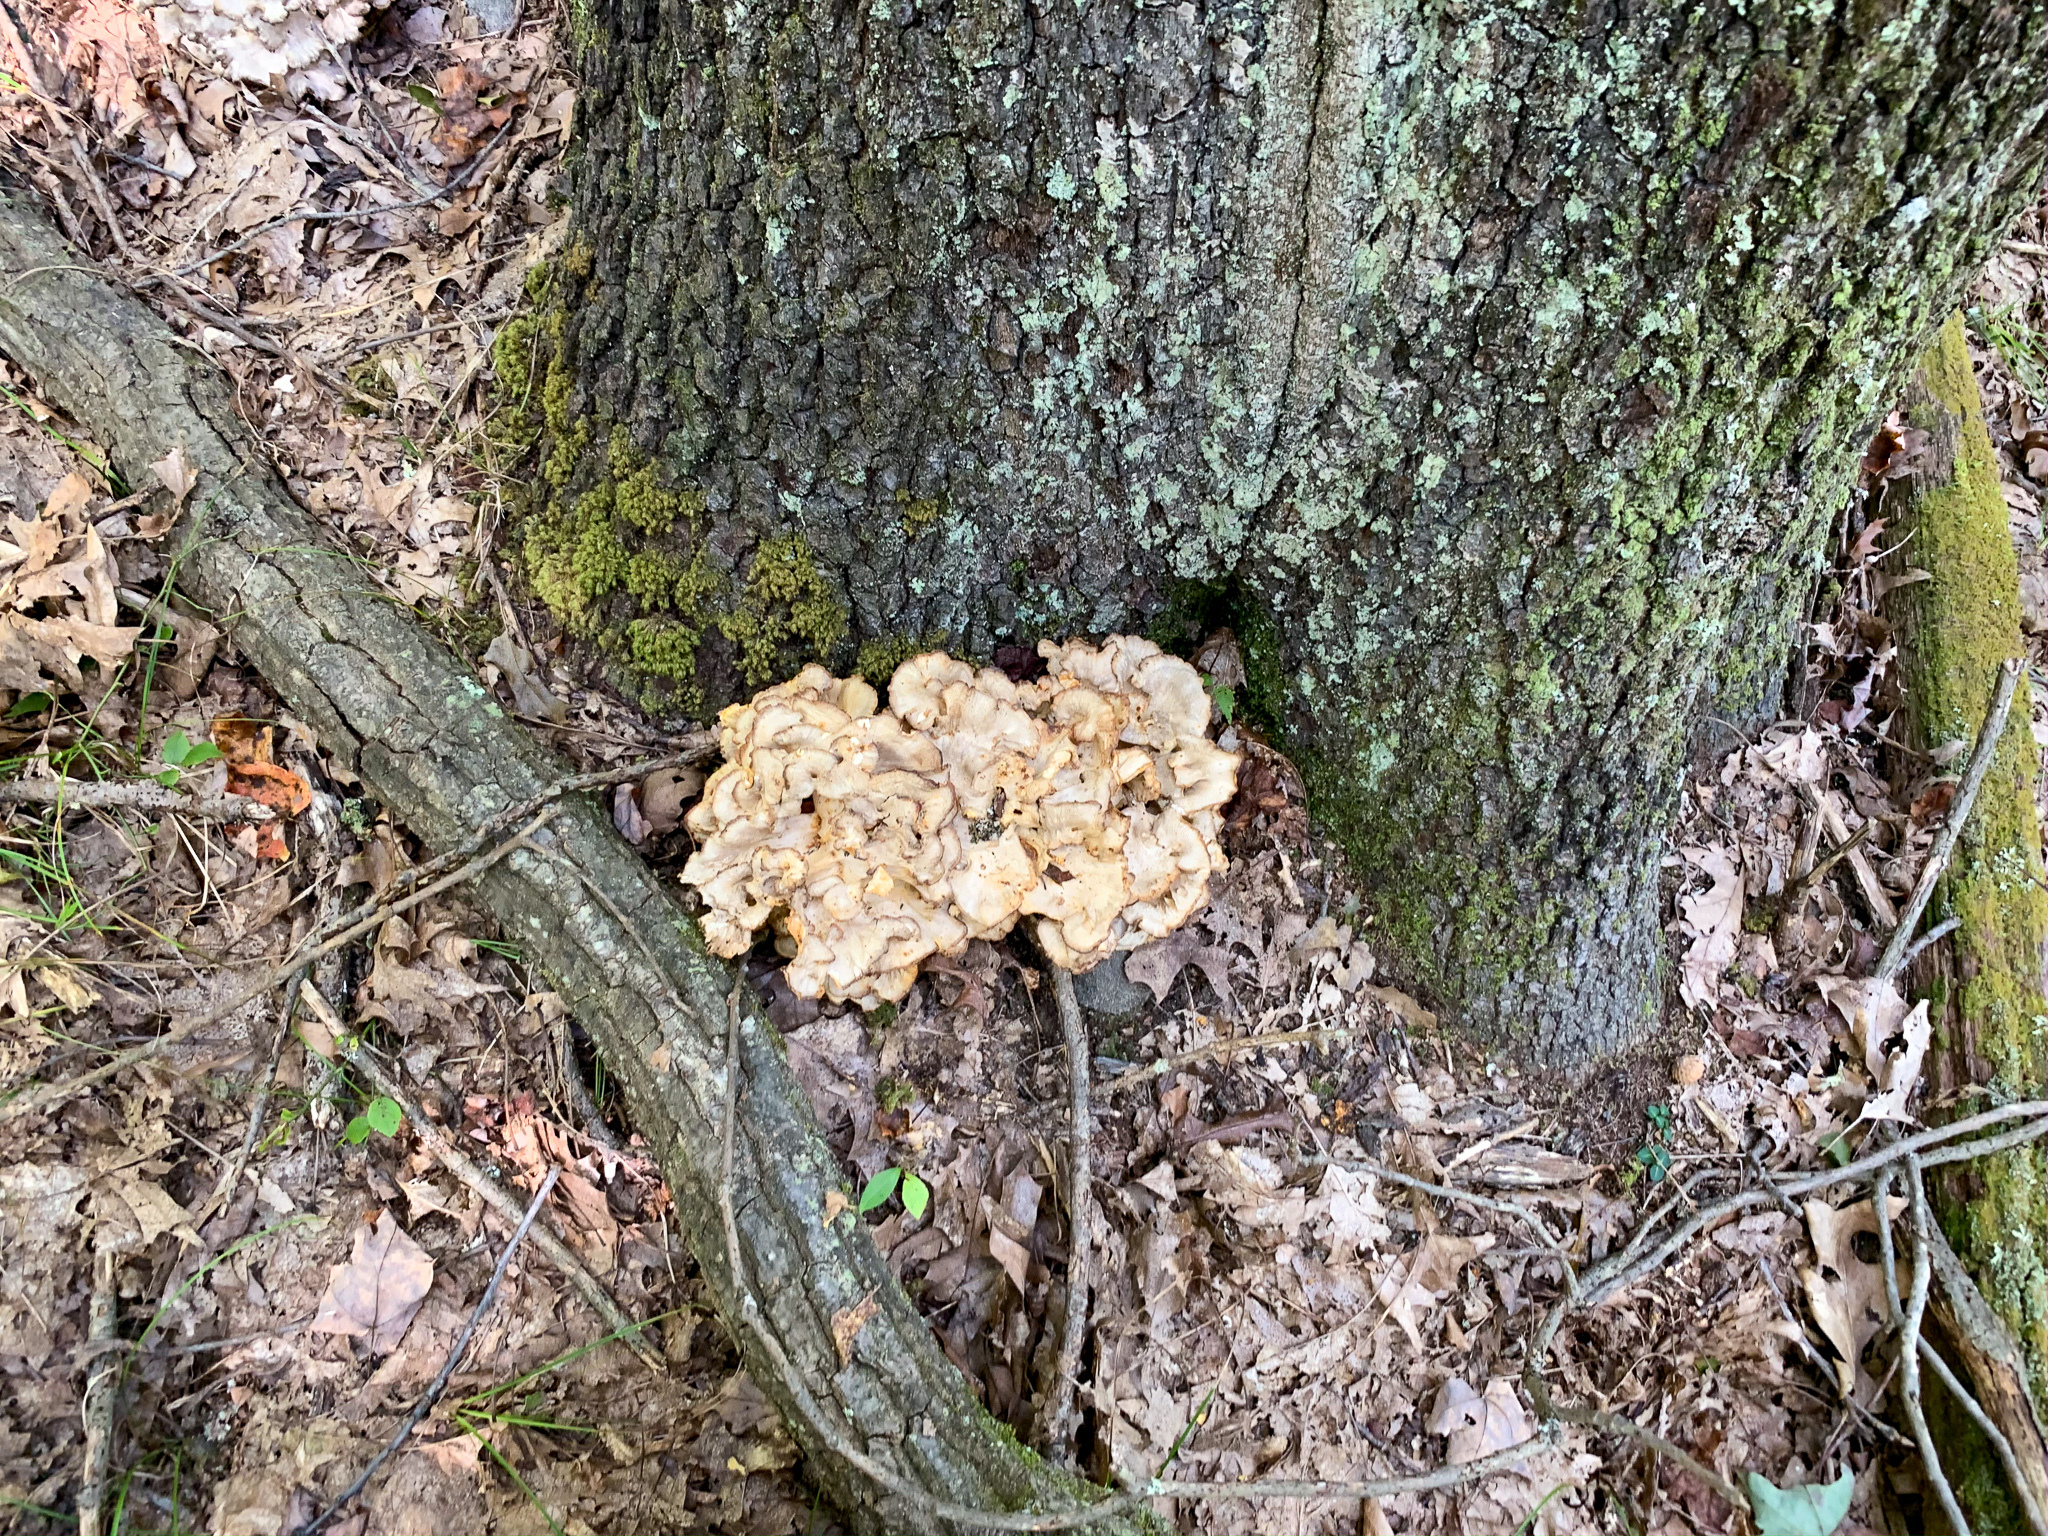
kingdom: Fungi
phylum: Basidiomycota
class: Agaricomycetes
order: Polyporales
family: Grifolaceae
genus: Grifola
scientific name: Grifola frondosa
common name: Hen of the woods
